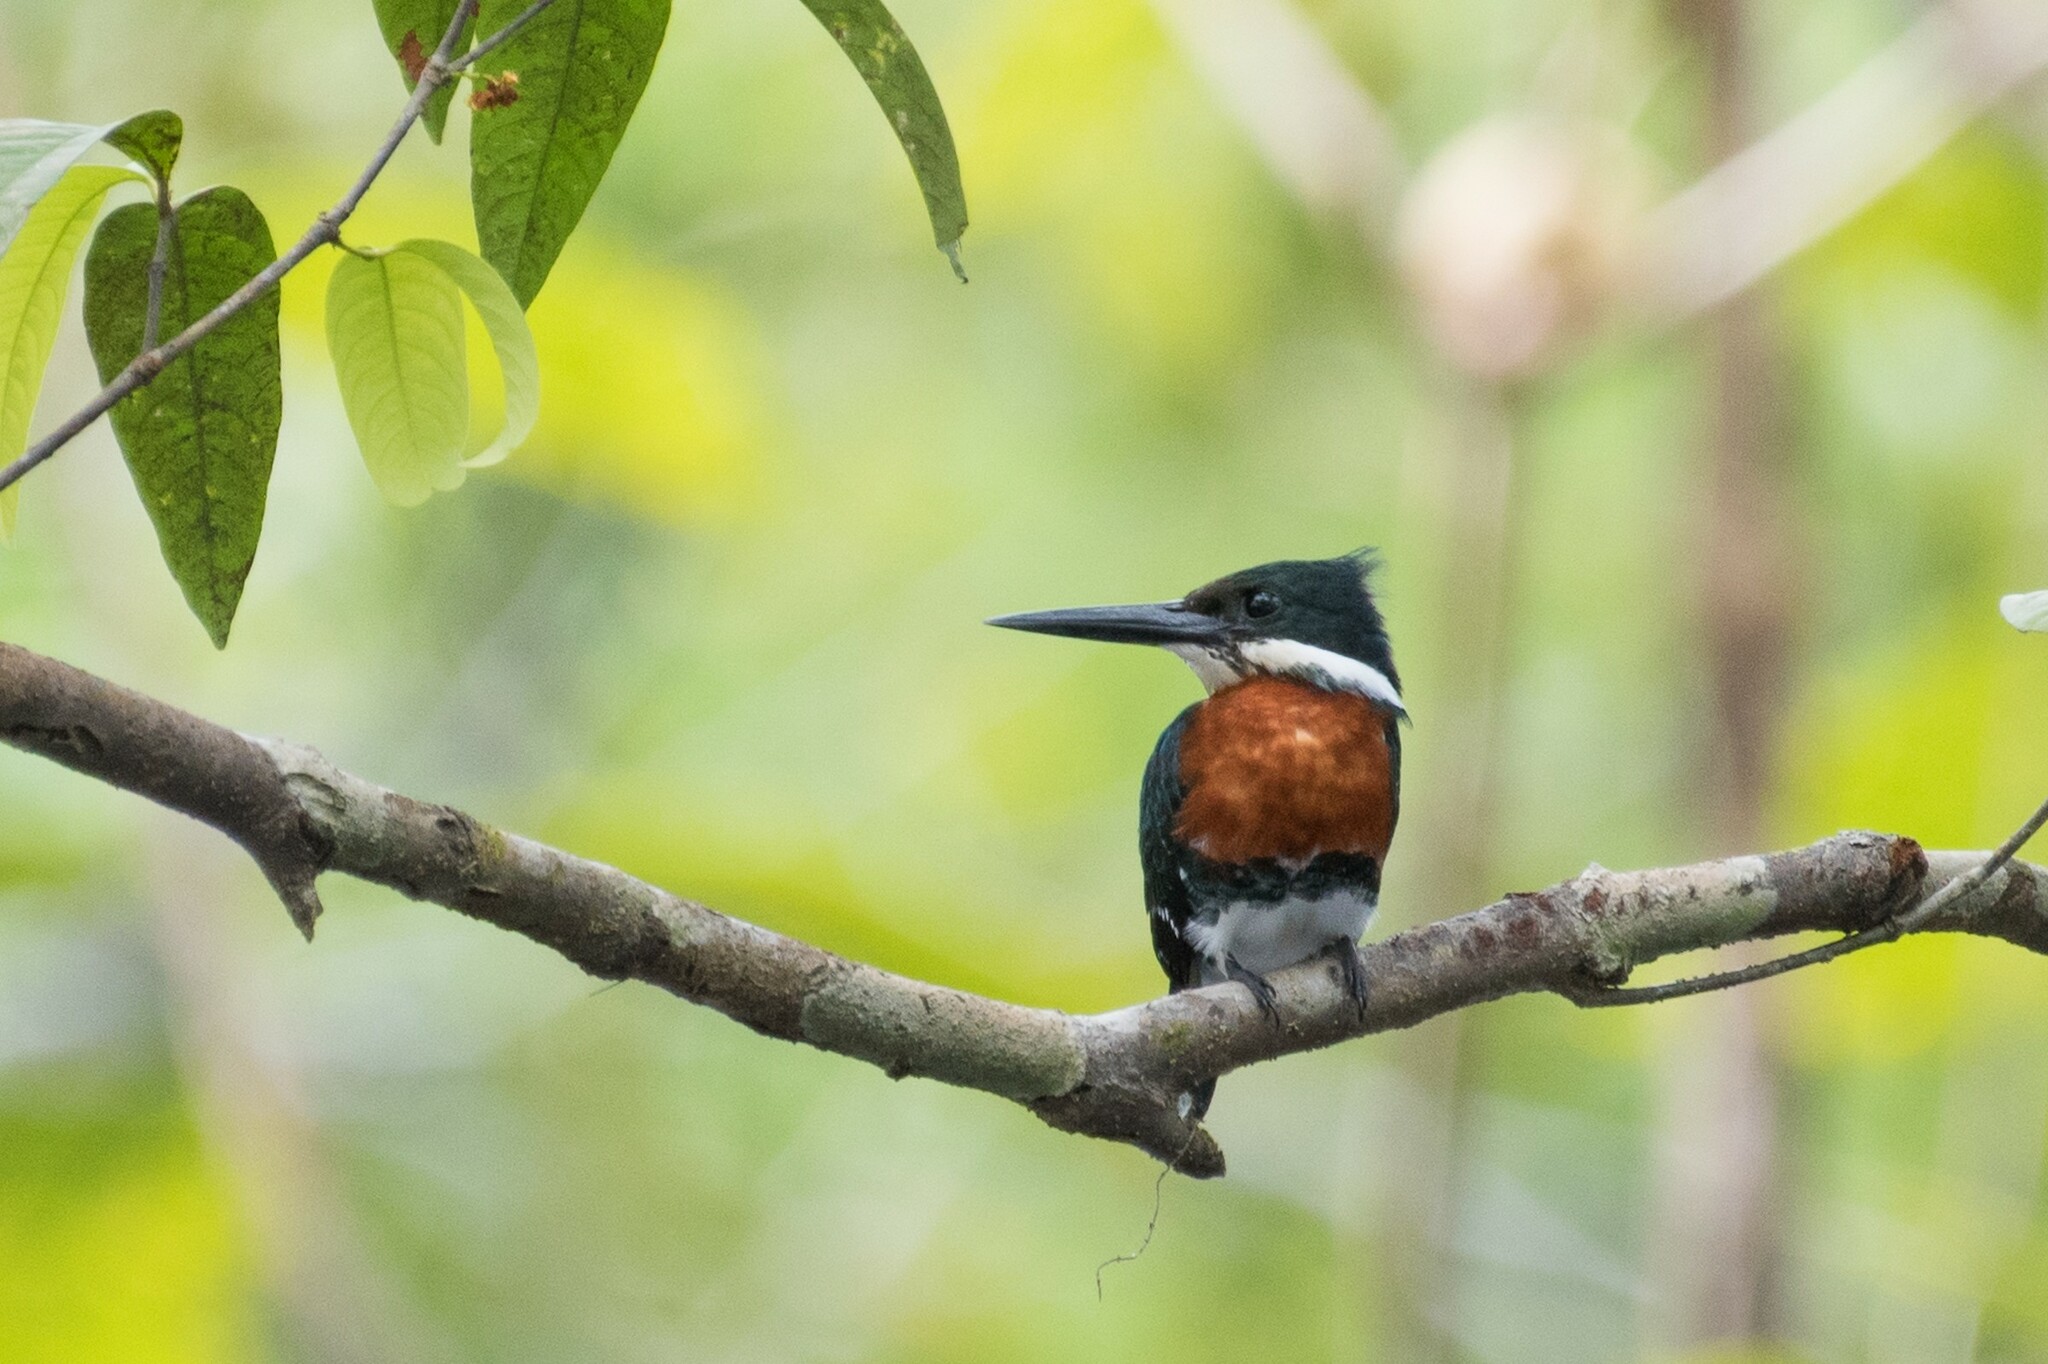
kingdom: Animalia
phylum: Chordata
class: Aves
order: Coraciiformes
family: Alcedinidae
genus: Chloroceryle
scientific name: Chloroceryle americana
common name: Green kingfisher
